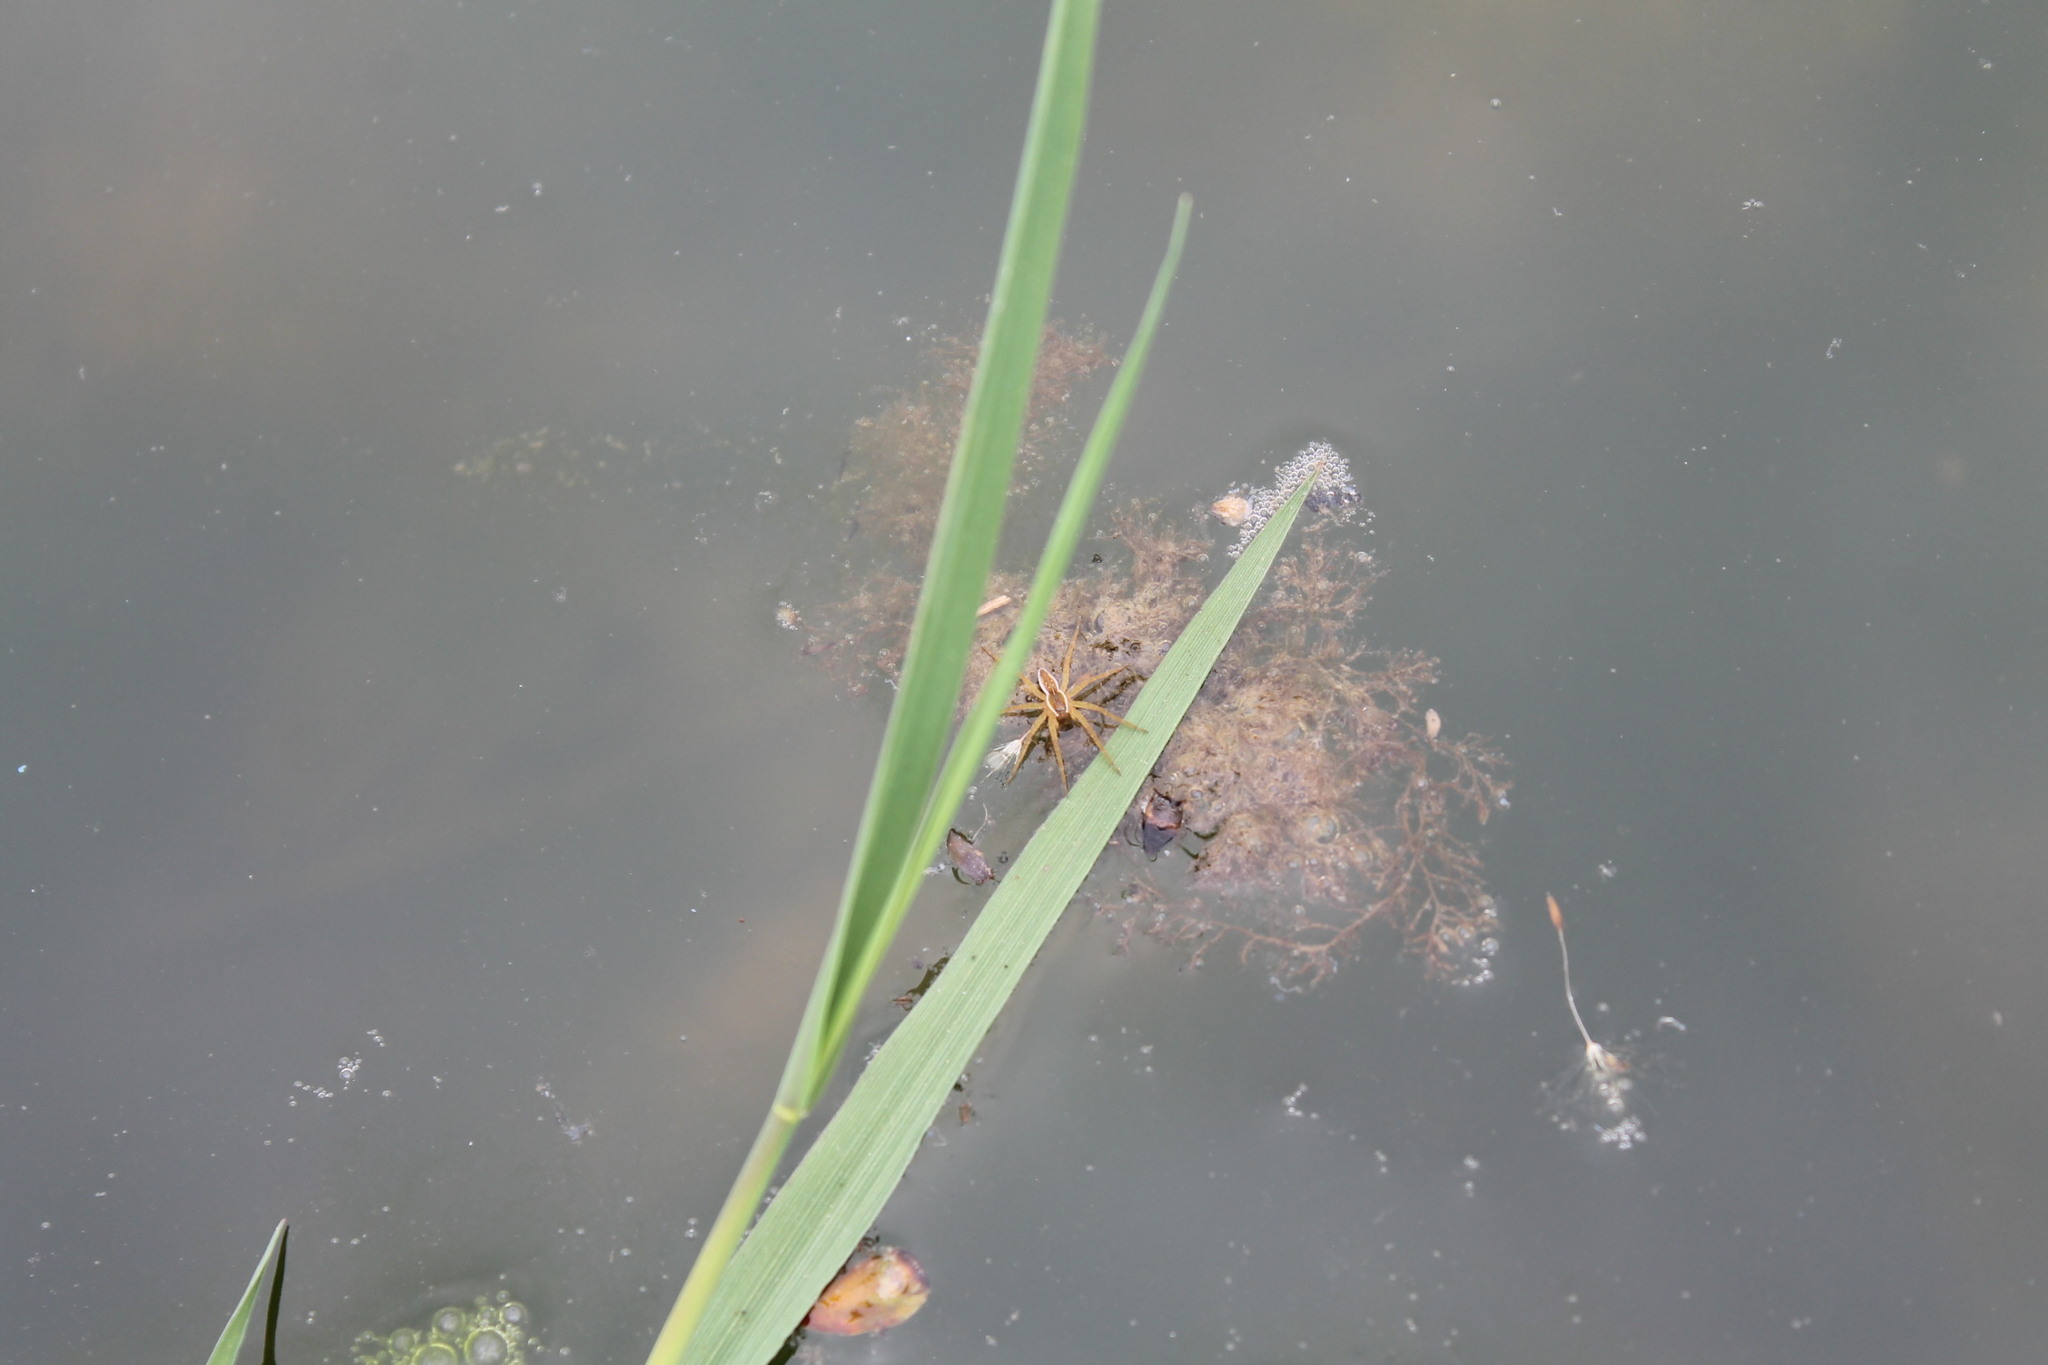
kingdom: Animalia
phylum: Arthropoda
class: Arachnida
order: Araneae
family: Pisauridae
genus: Dolomedes
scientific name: Dolomedes triton
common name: Six-spotted fishing spider
